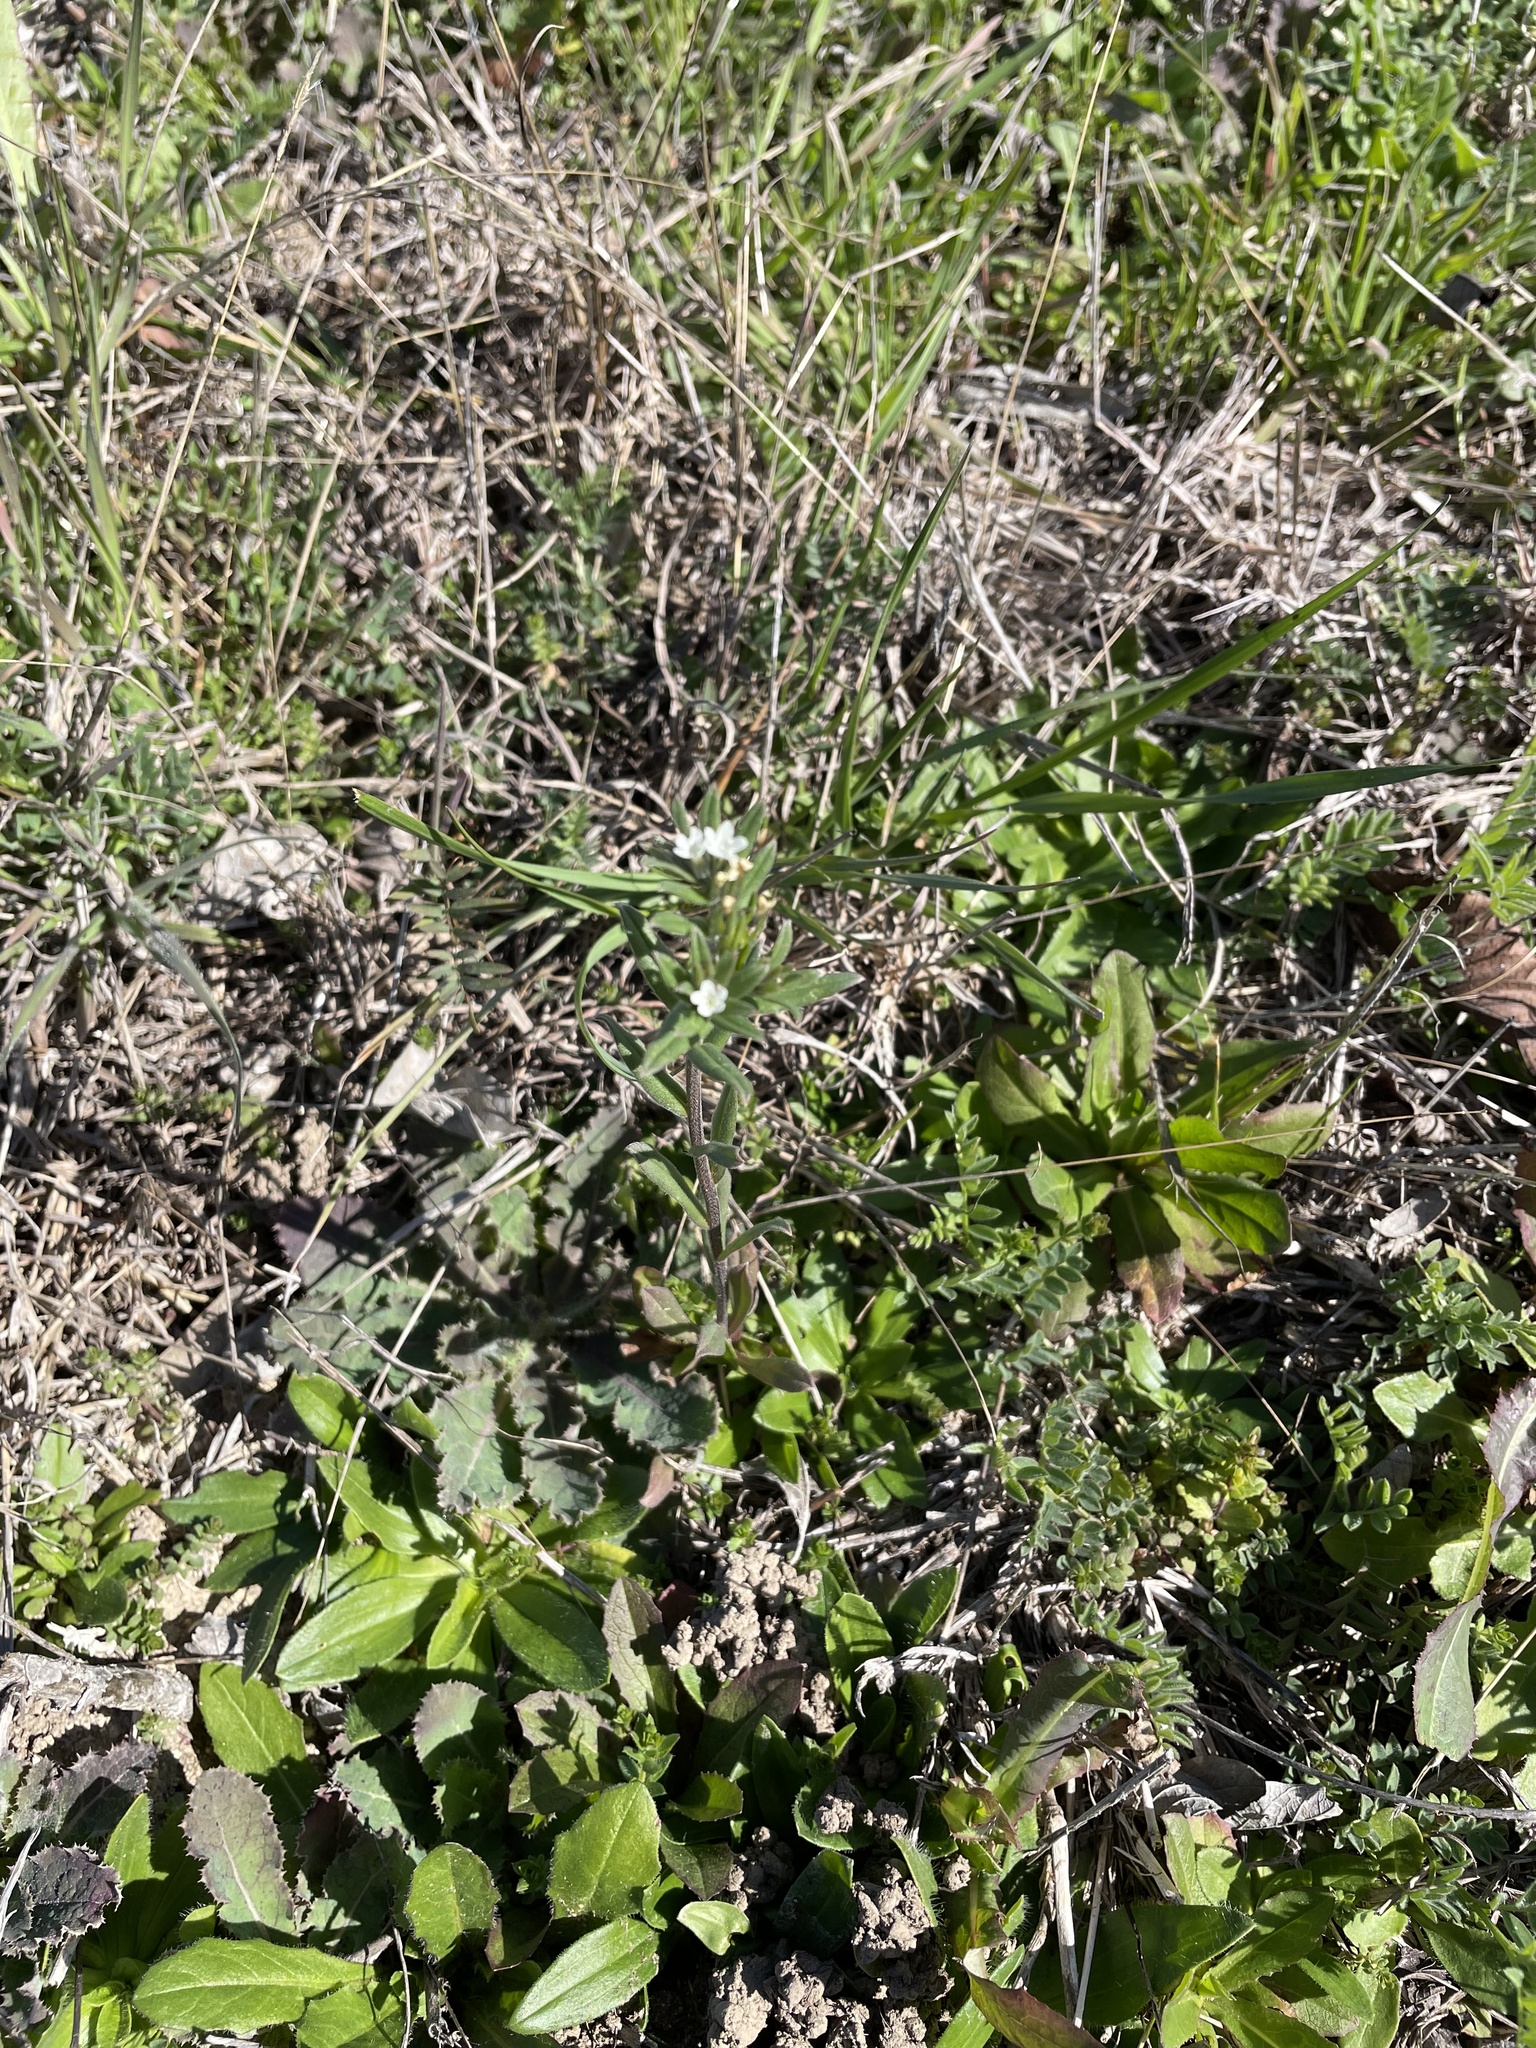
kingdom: Plantae
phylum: Tracheophyta
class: Magnoliopsida
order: Boraginales
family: Boraginaceae
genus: Buglossoides
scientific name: Buglossoides arvensis
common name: Corn gromwell
